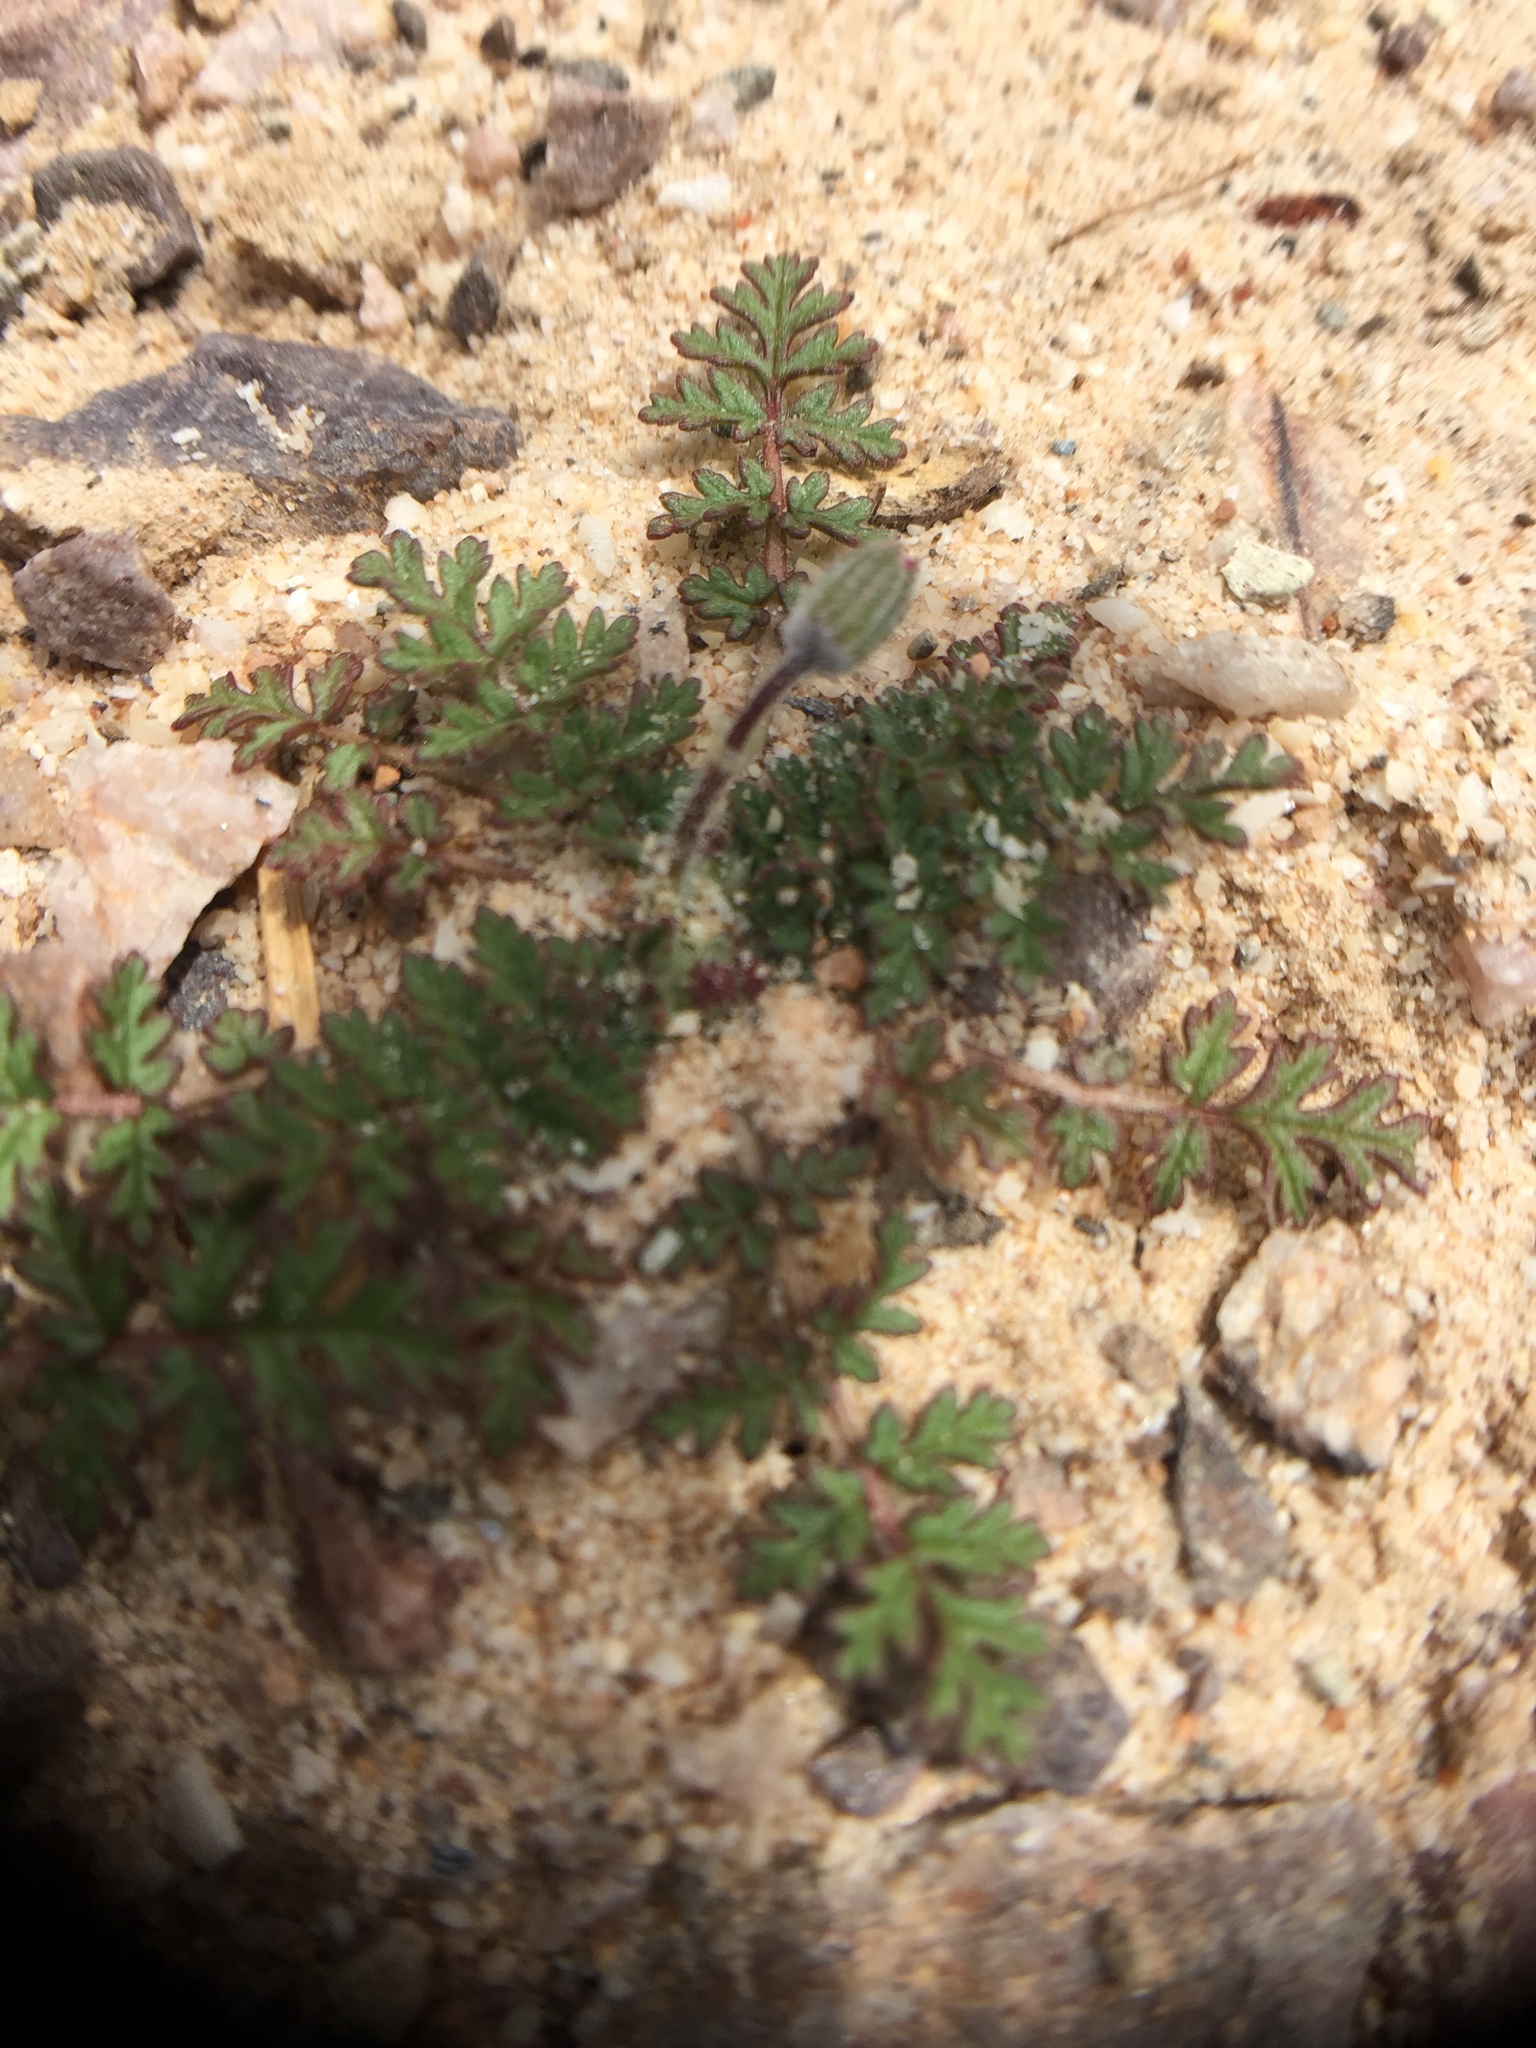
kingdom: Plantae
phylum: Tracheophyta
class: Magnoliopsida
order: Geraniales
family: Geraniaceae
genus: Erodium
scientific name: Erodium cicutarium
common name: Common stork's-bill
